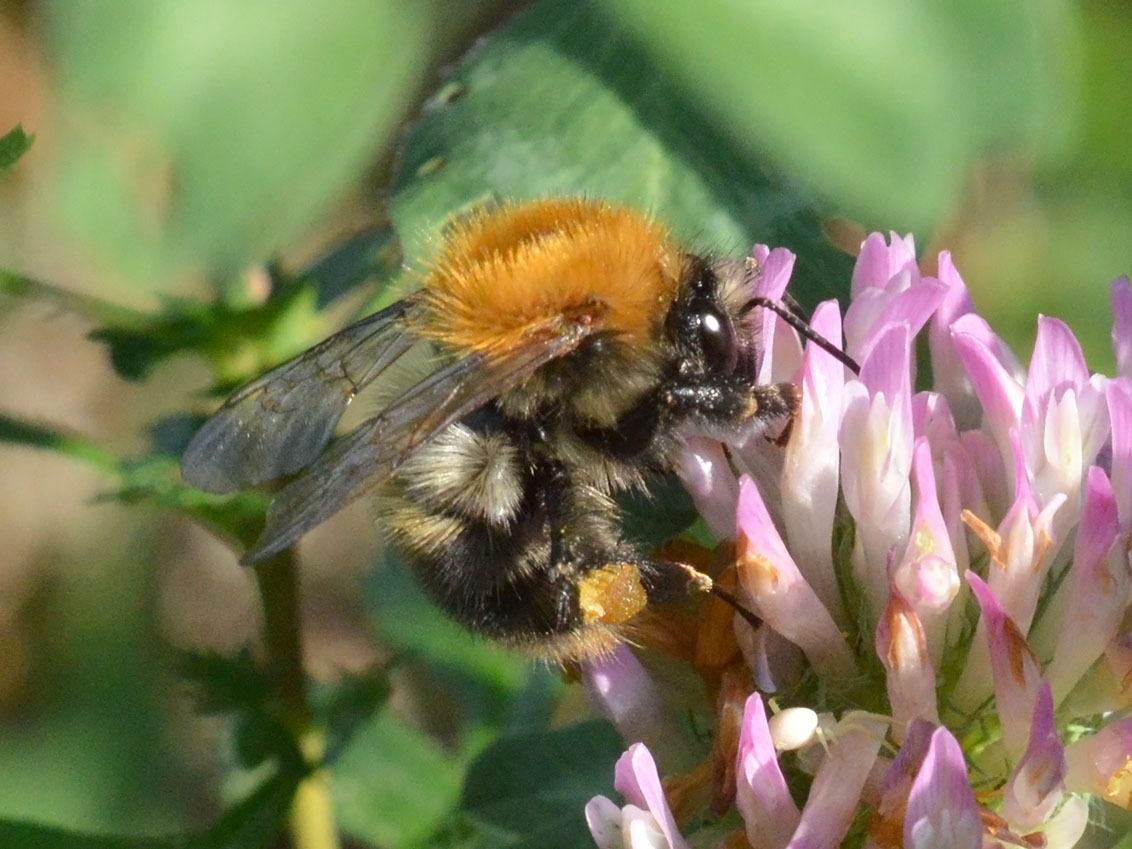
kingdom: Animalia
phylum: Arthropoda
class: Insecta
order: Hymenoptera
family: Apidae
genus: Bombus
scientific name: Bombus pascuorum
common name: Common carder bee
